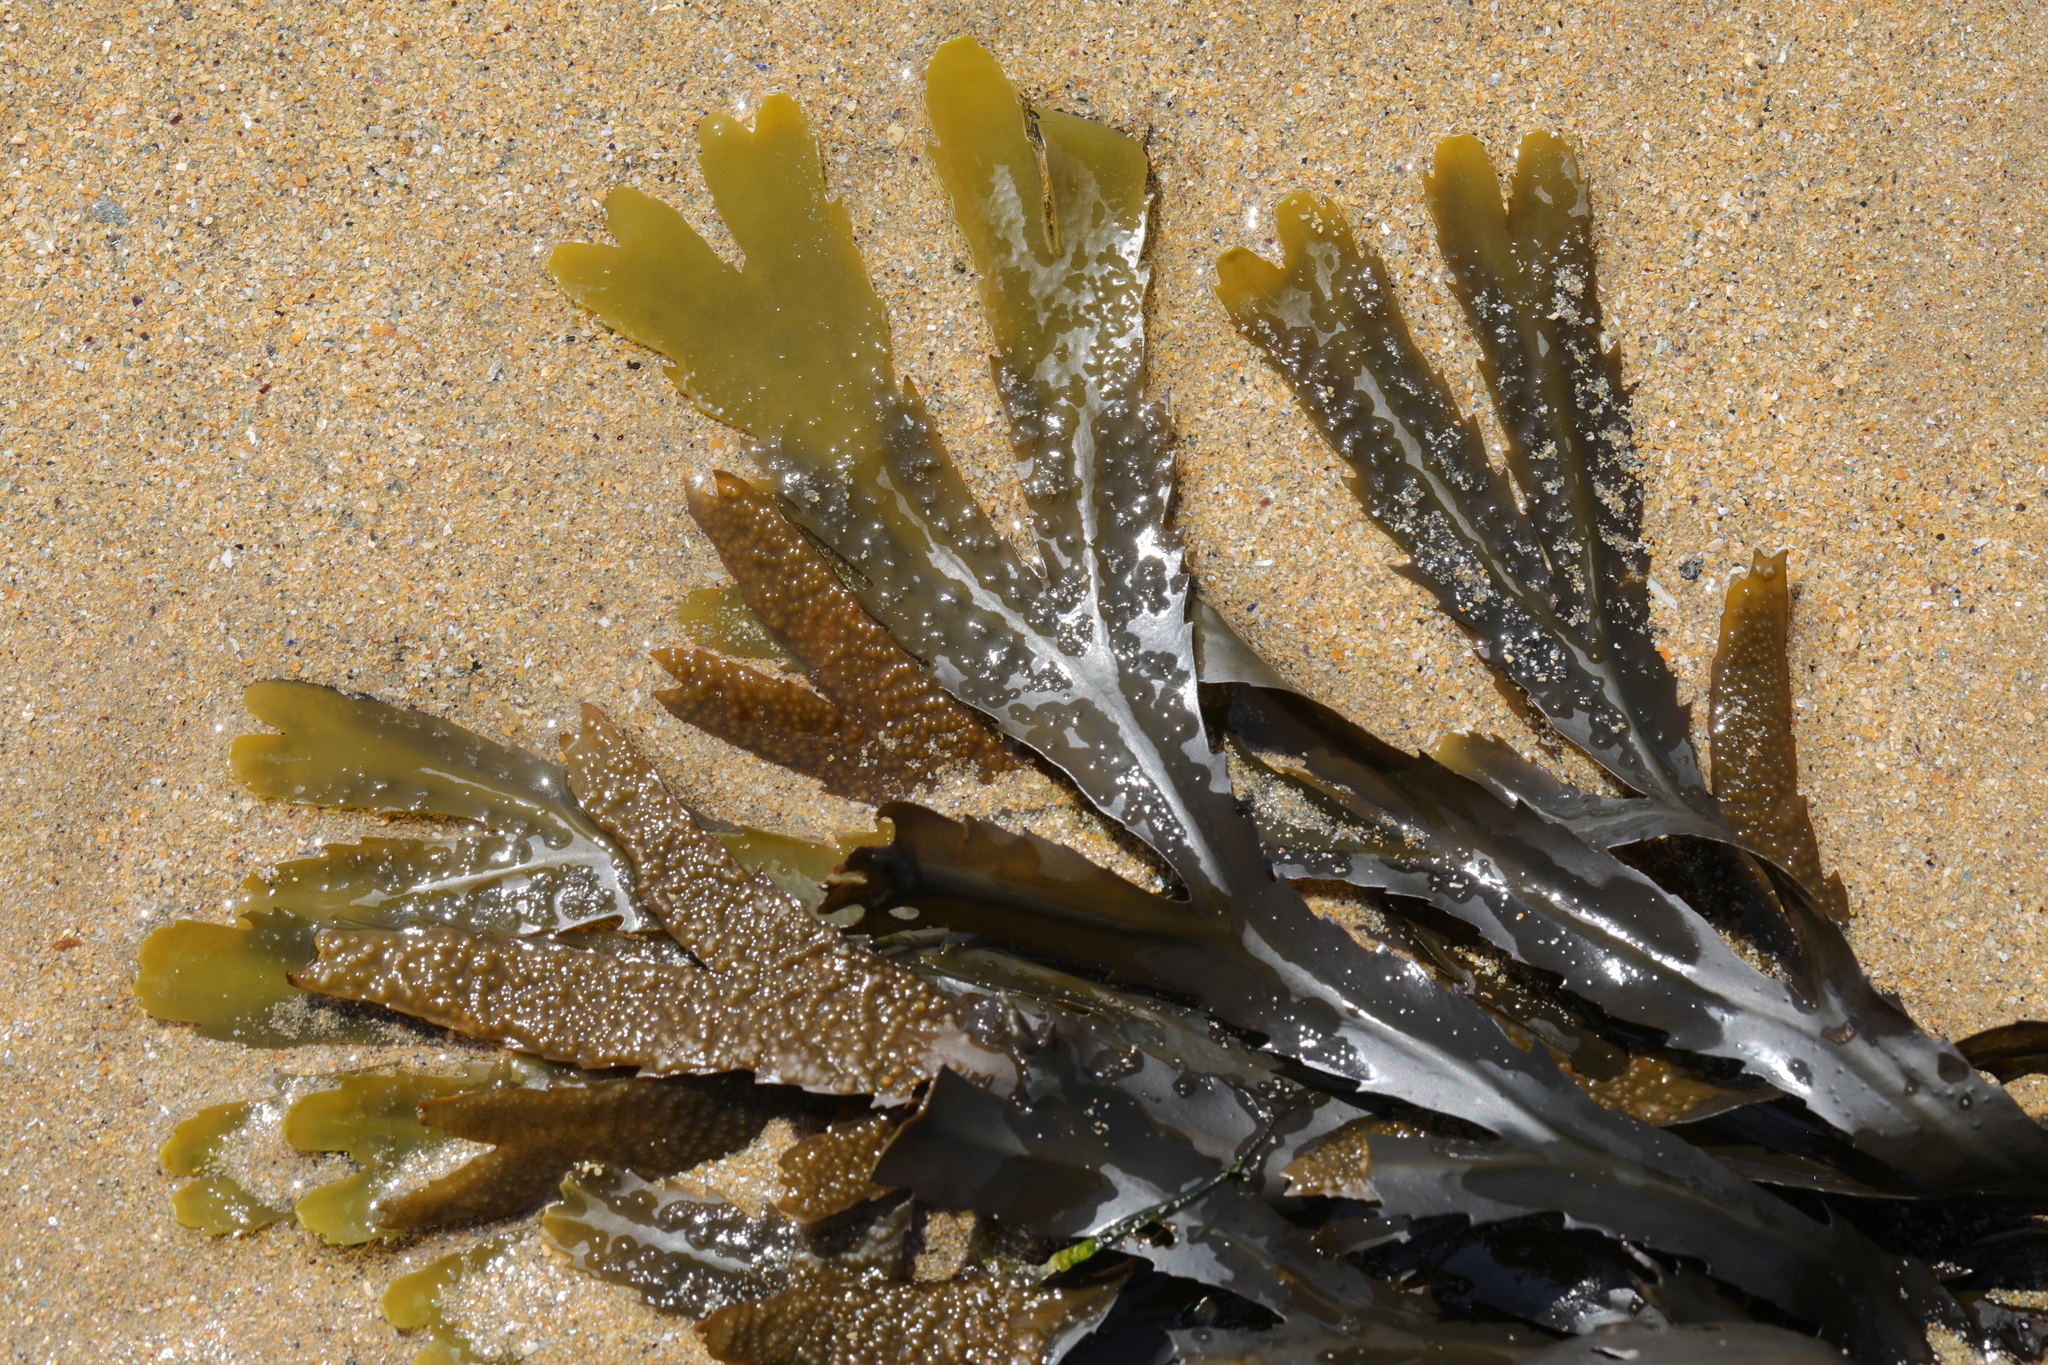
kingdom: Chromista
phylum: Ochrophyta
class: Phaeophyceae
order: Fucales
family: Fucaceae
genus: Fucus
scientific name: Fucus serratus
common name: Toothed wrack
